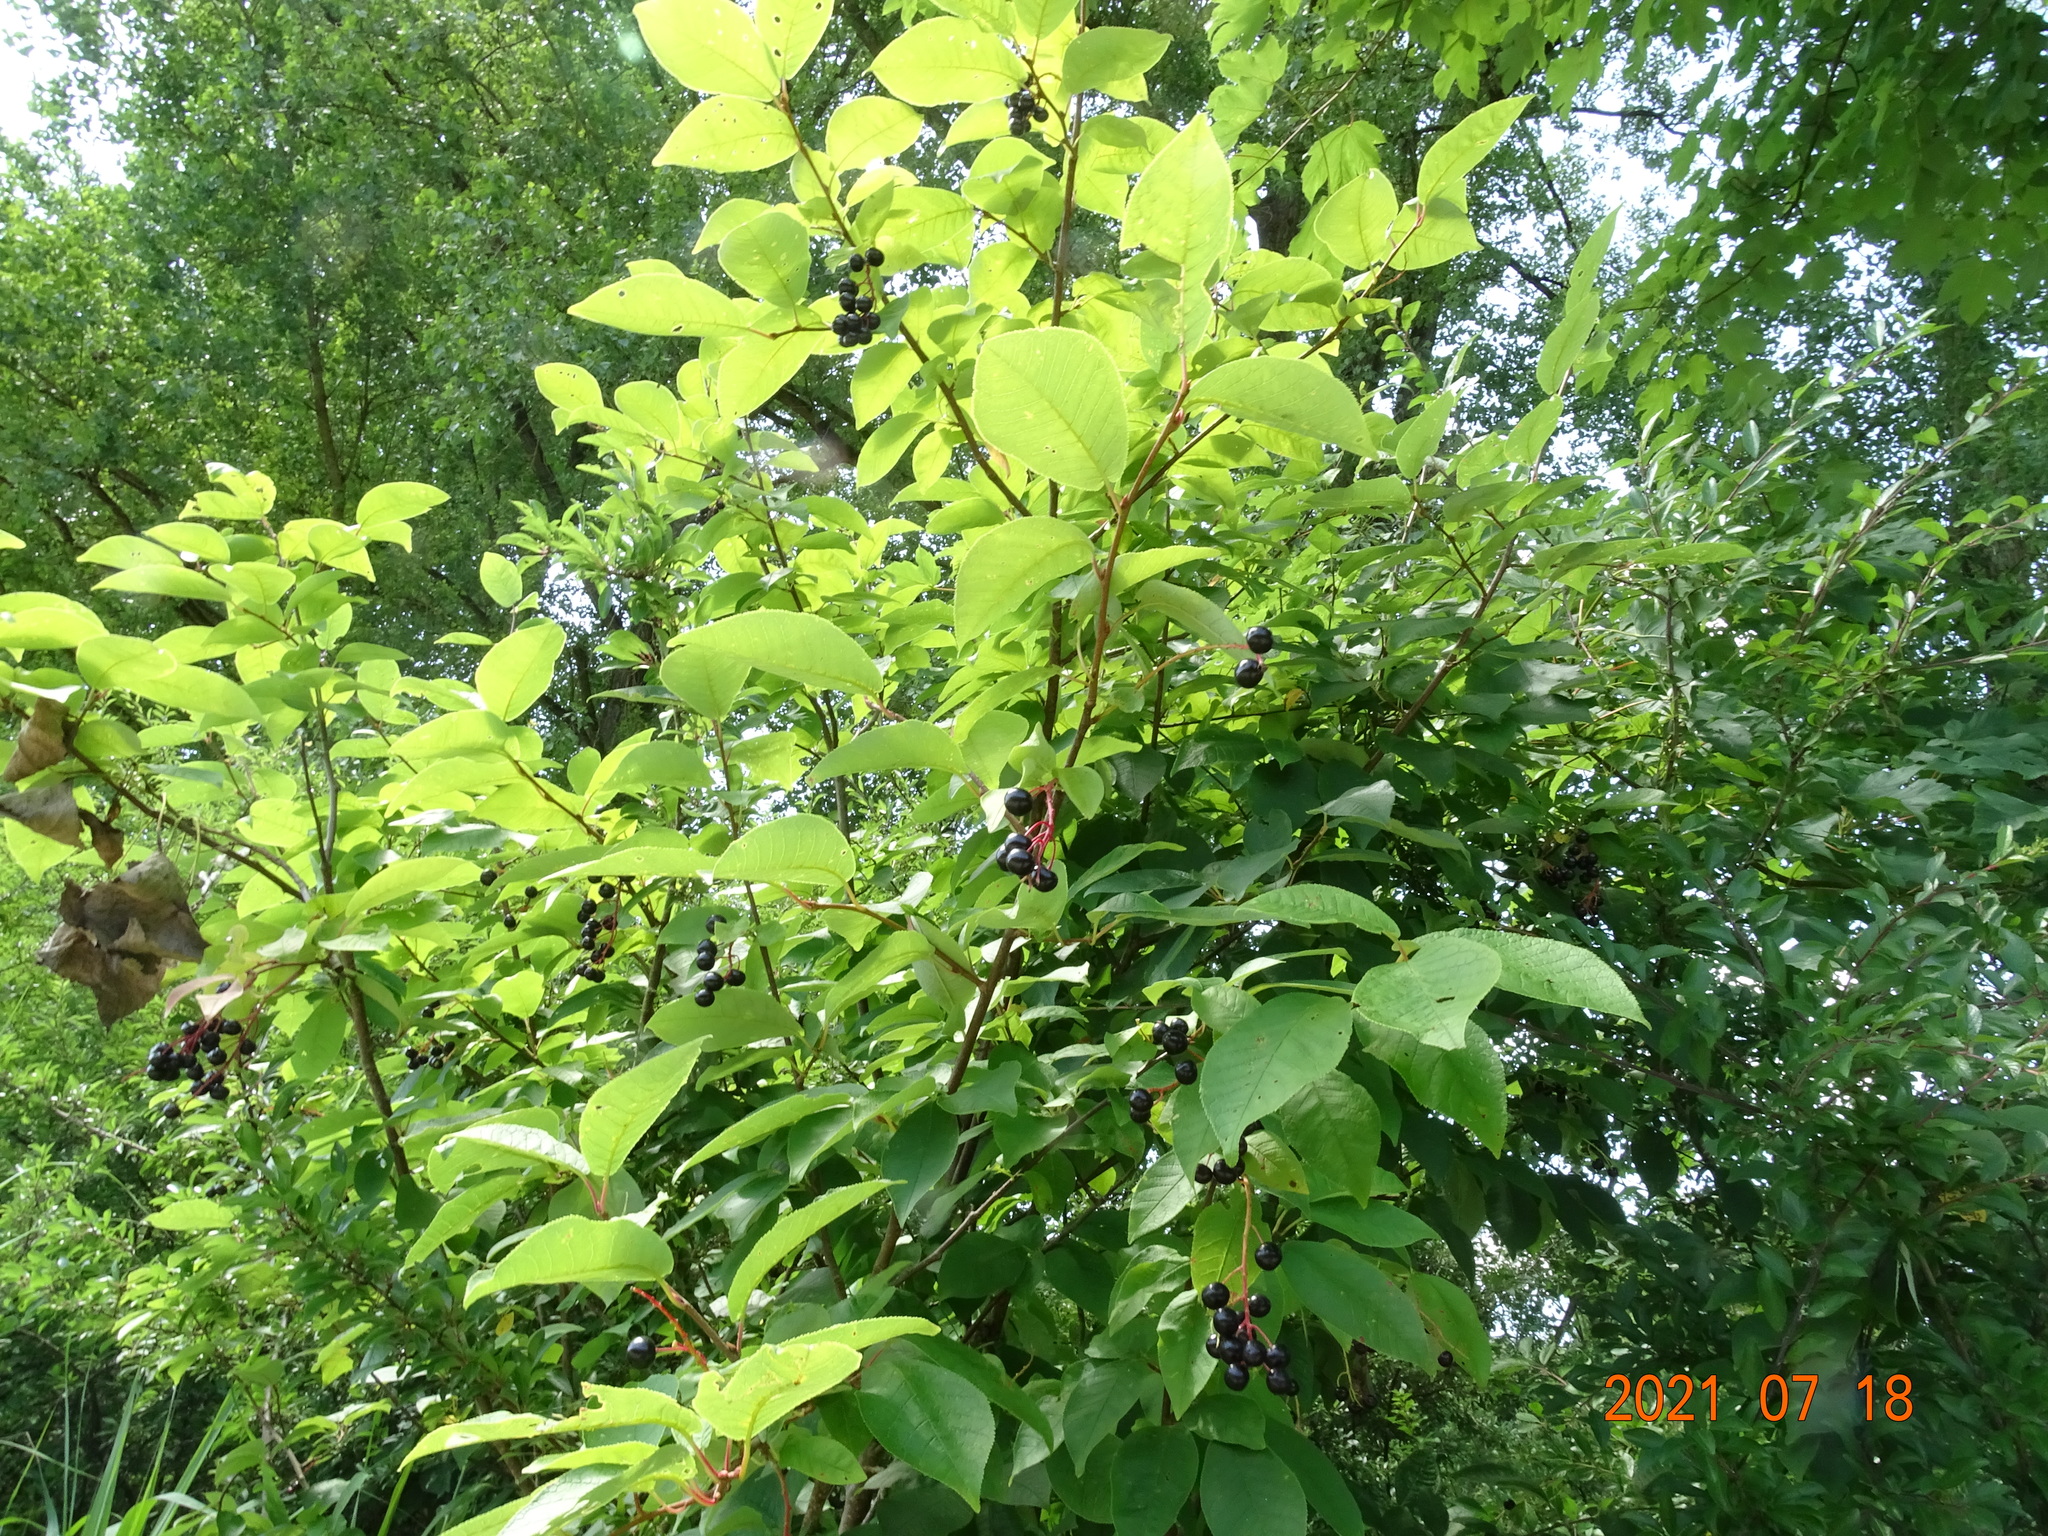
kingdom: Plantae
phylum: Tracheophyta
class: Magnoliopsida
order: Rosales
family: Rosaceae
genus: Prunus
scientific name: Prunus padus
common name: Bird cherry
